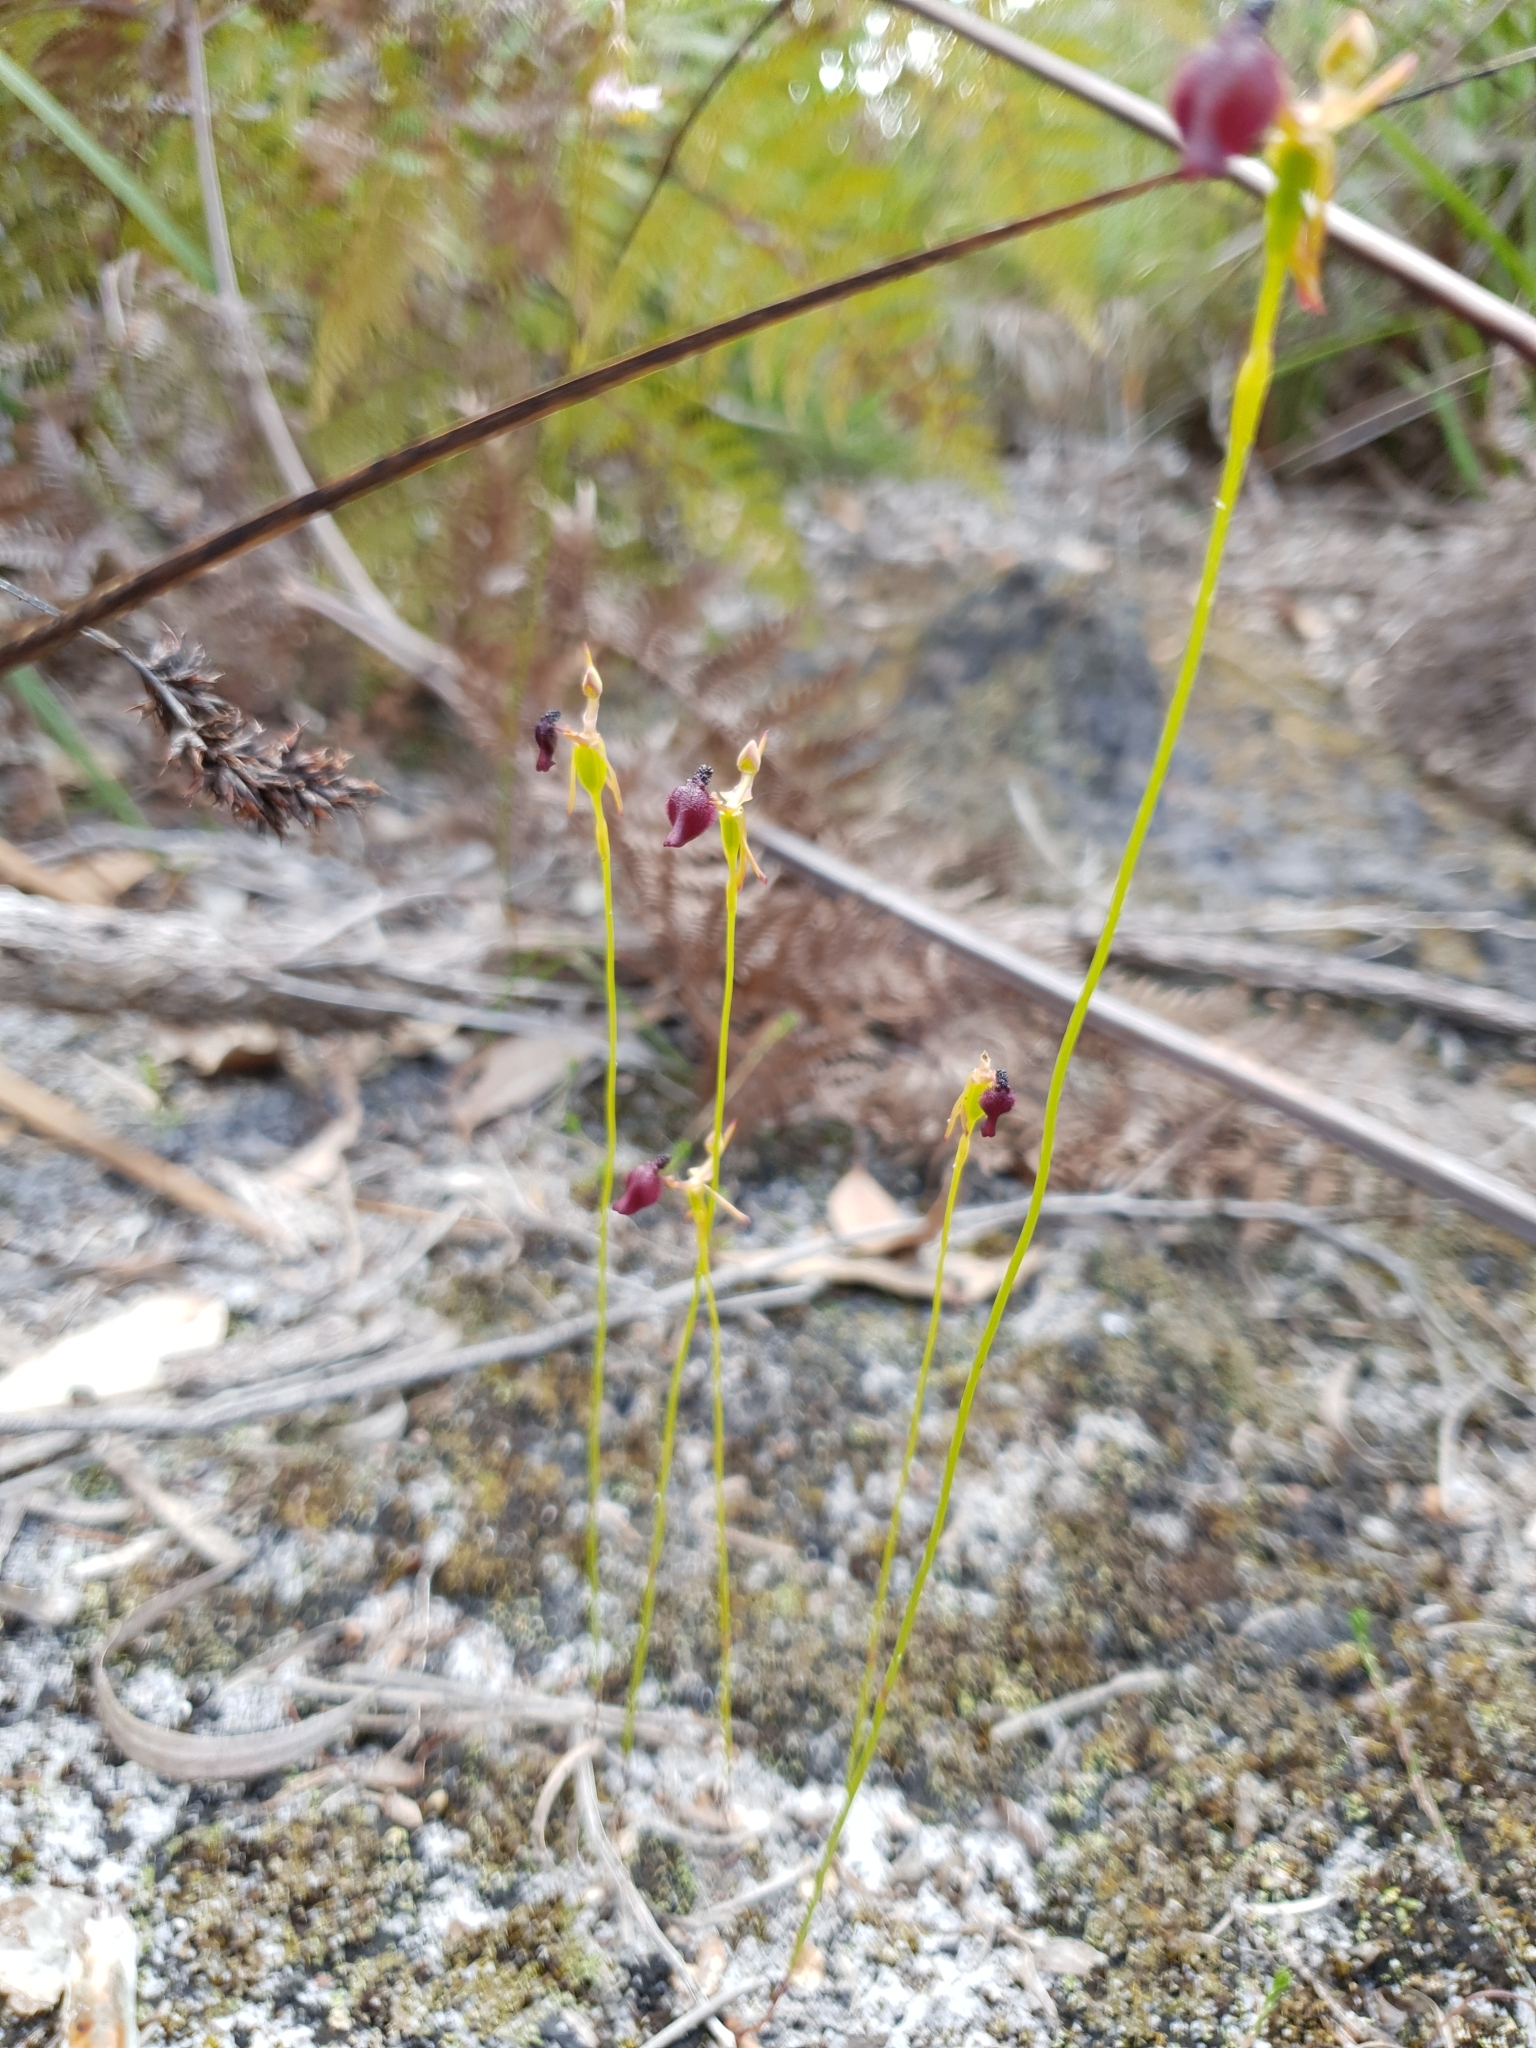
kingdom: Plantae
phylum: Tracheophyta
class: Liliopsida
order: Asparagales
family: Orchidaceae
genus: Drakaea
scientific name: Drakaea glyptodon
